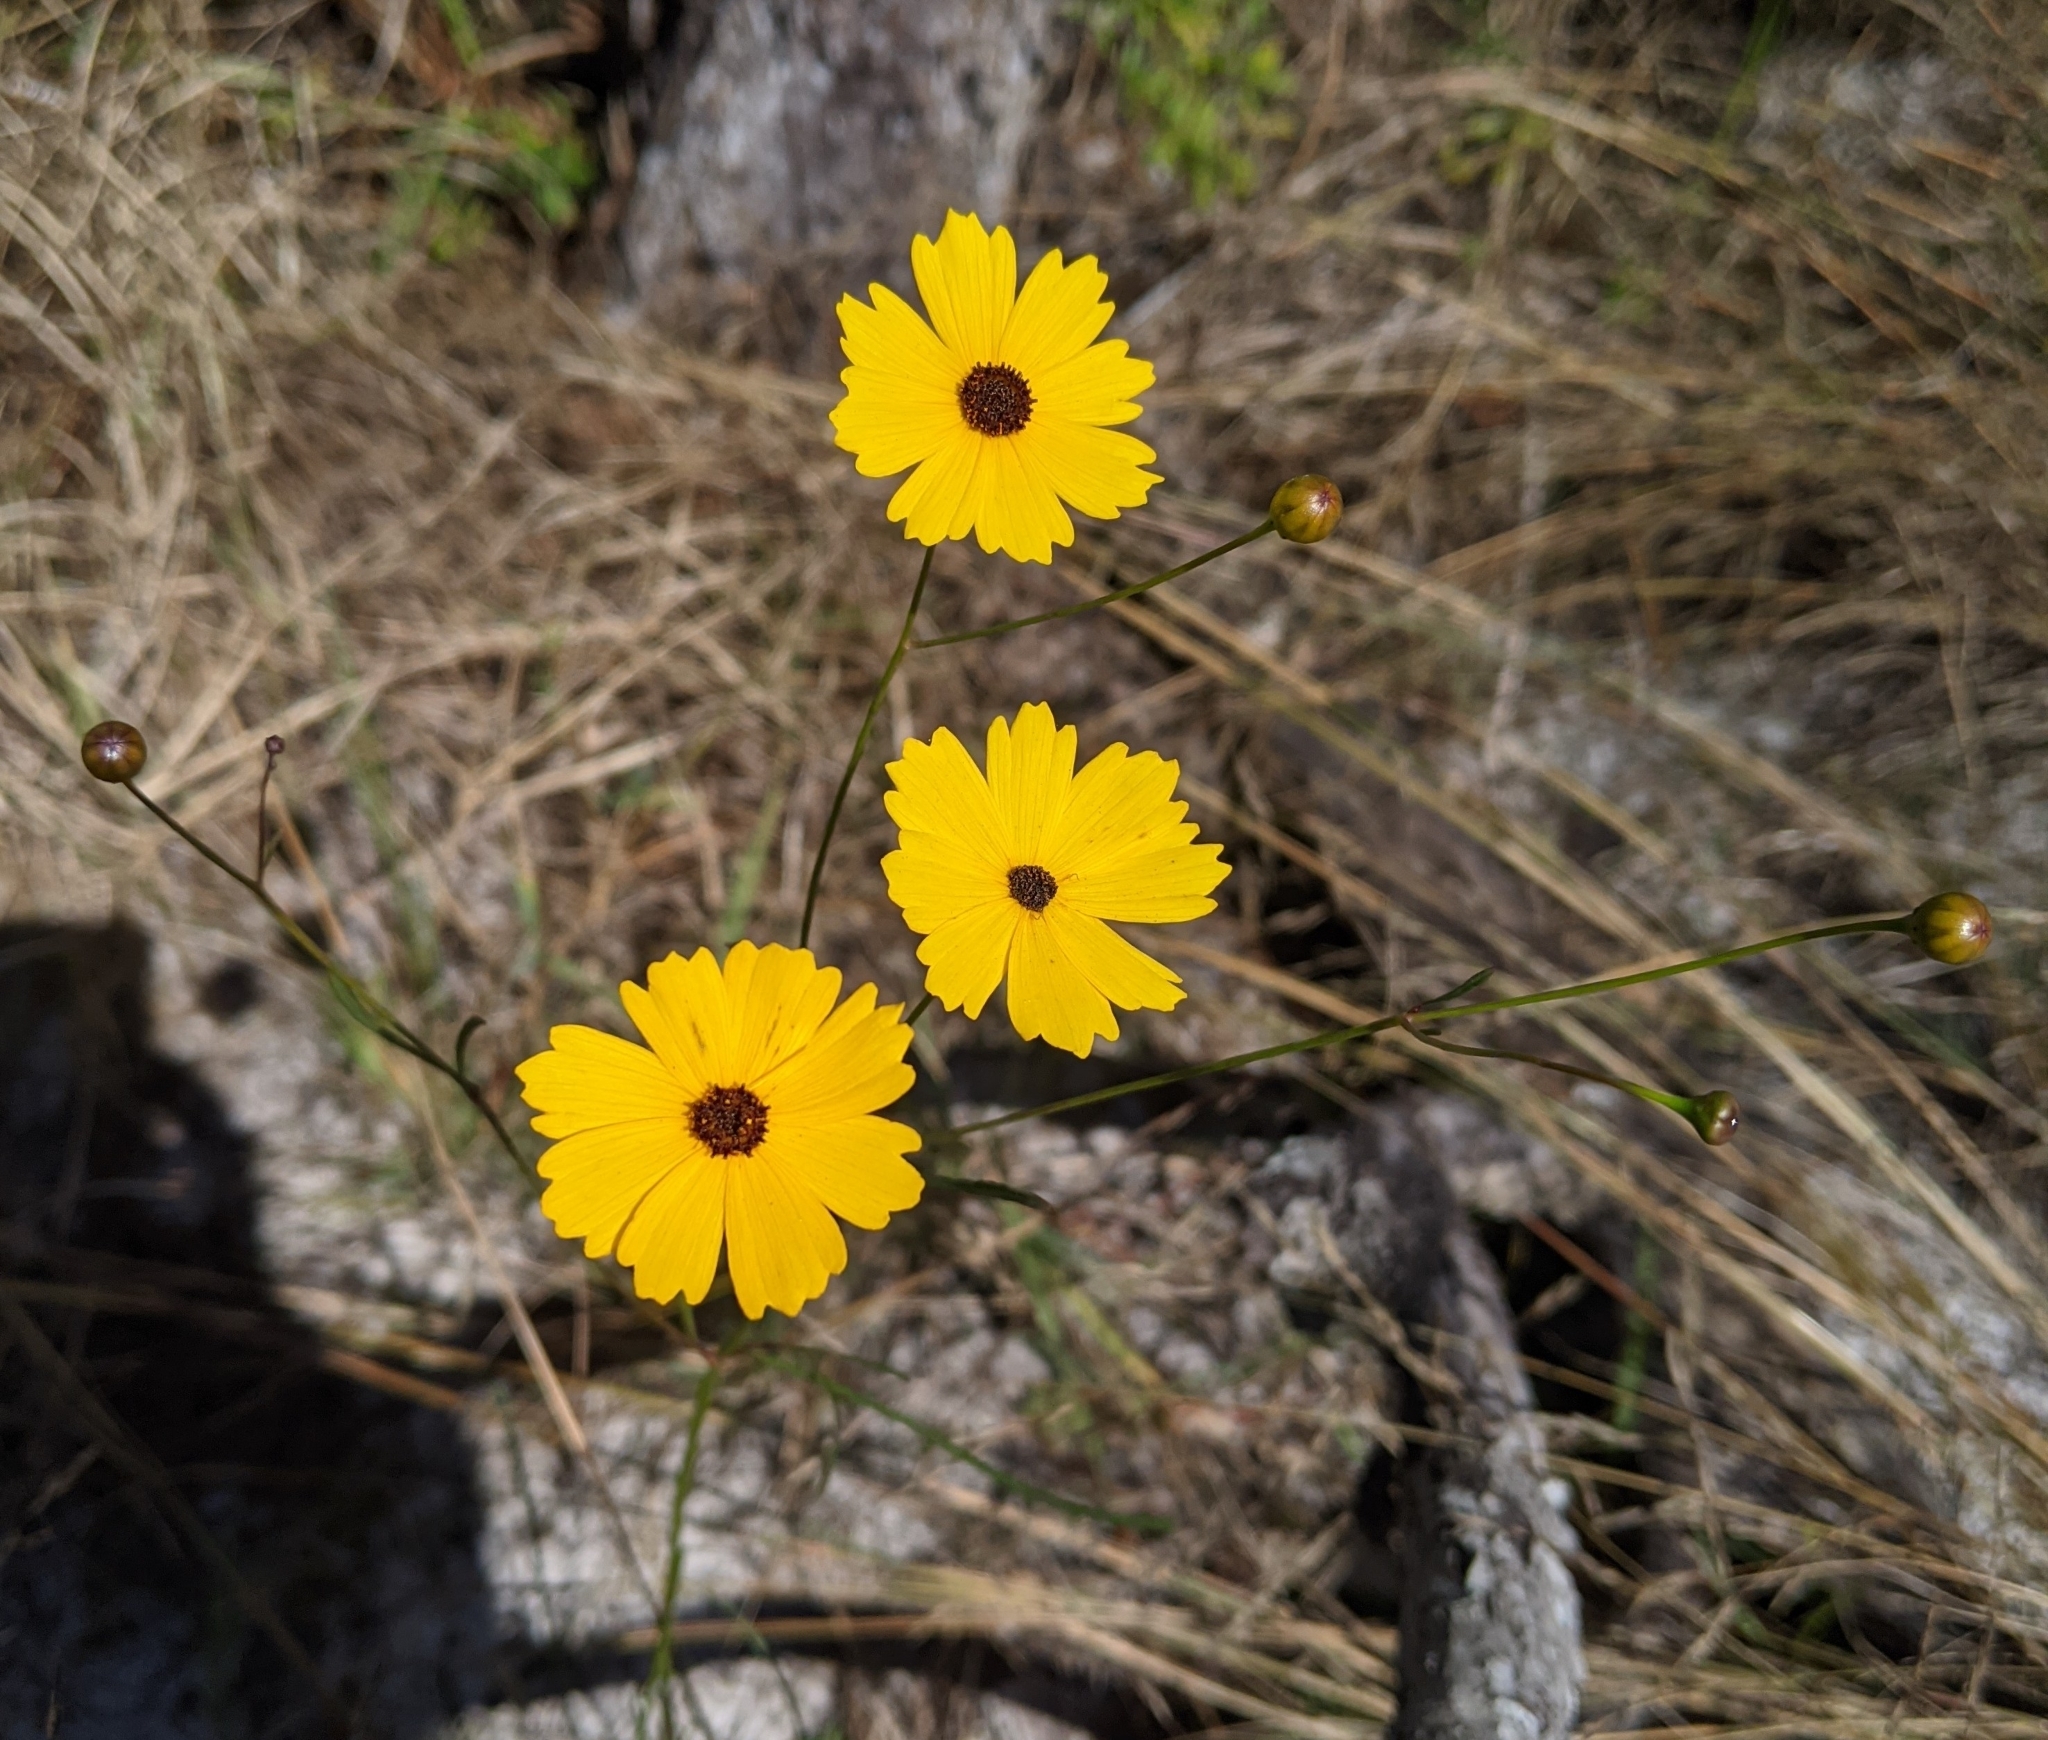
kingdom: Plantae
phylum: Tracheophyta
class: Magnoliopsida
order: Asterales
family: Asteraceae
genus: Coreopsis
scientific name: Coreopsis leavenworthii
